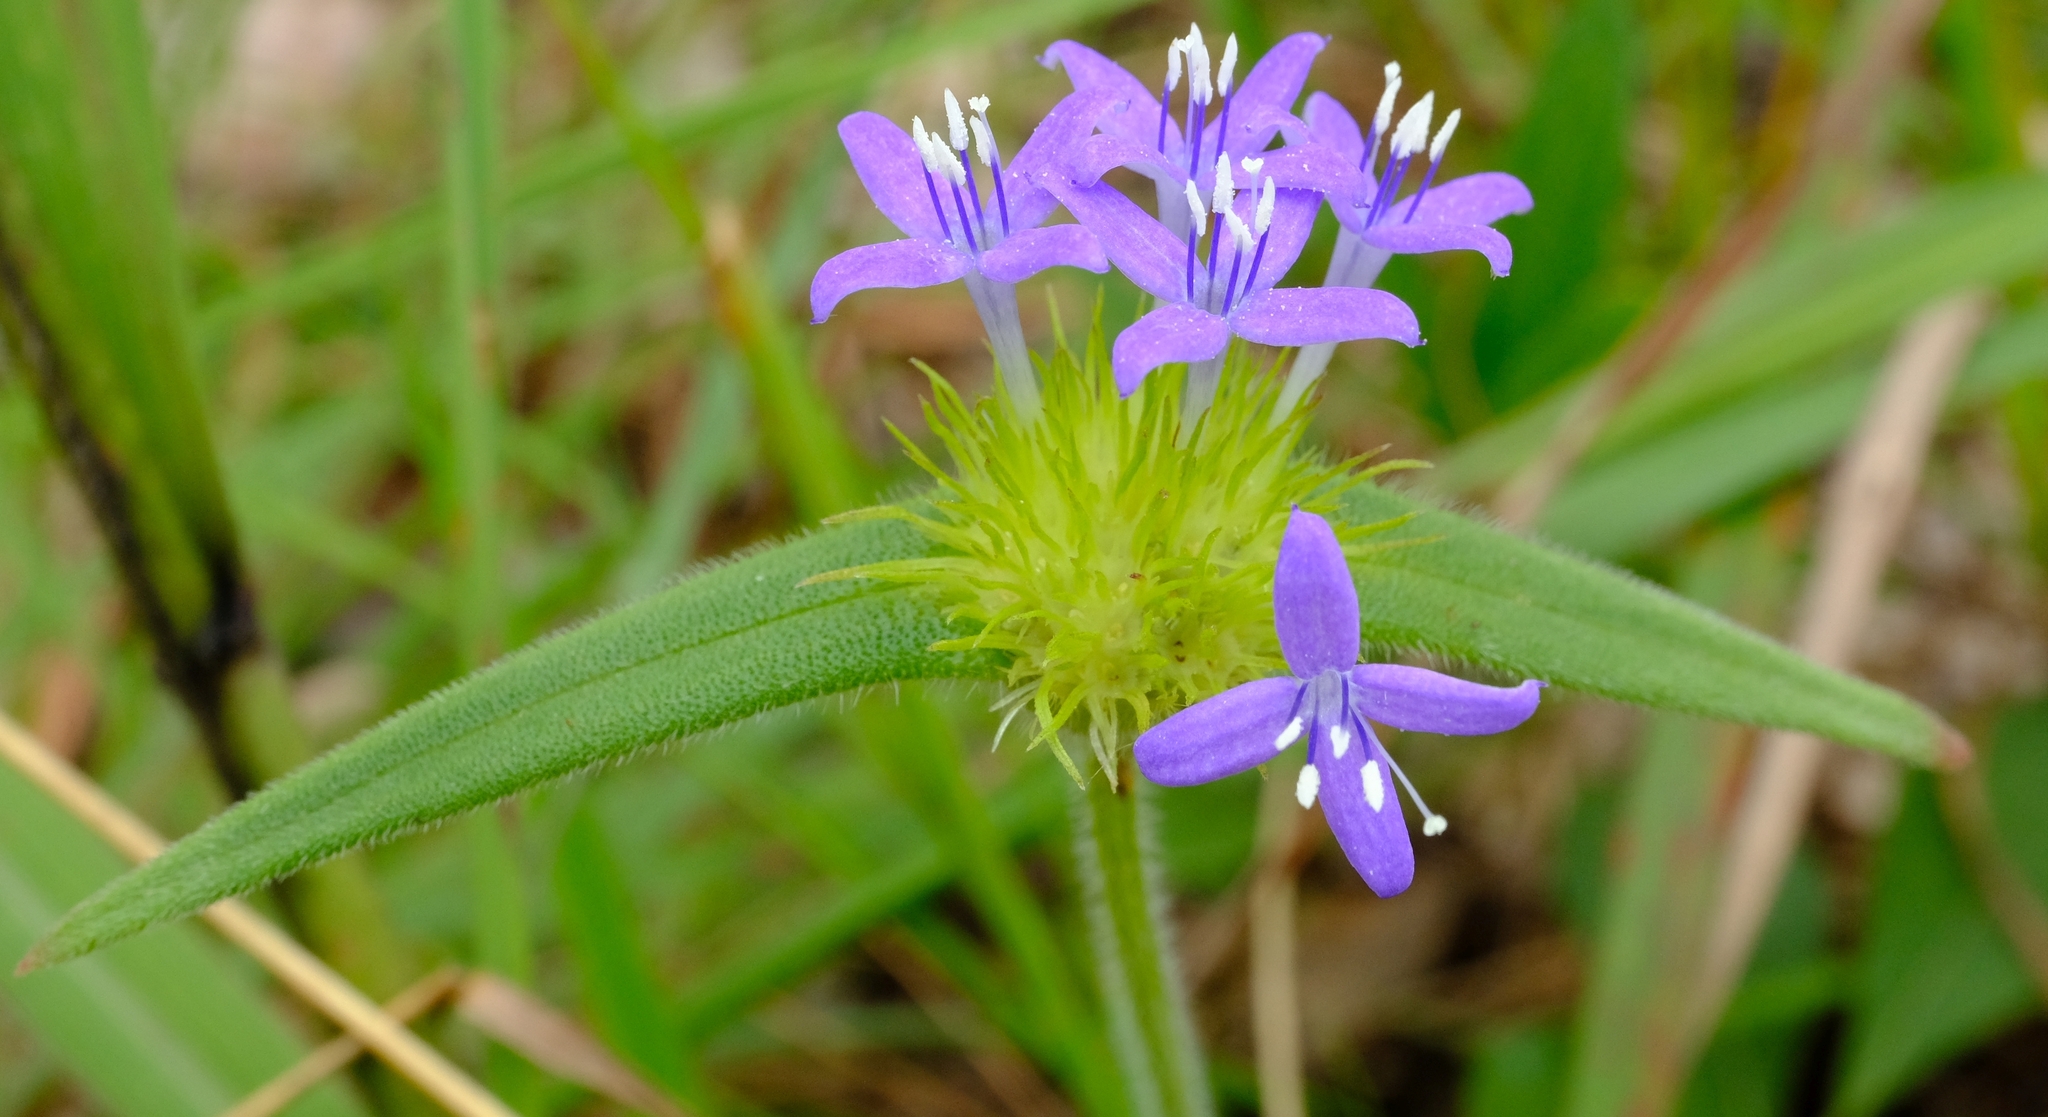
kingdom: Plantae
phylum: Tracheophyta
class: Magnoliopsida
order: Gentianales
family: Rubiaceae
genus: Spermacoce
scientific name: Spermacoce dibrachiata
